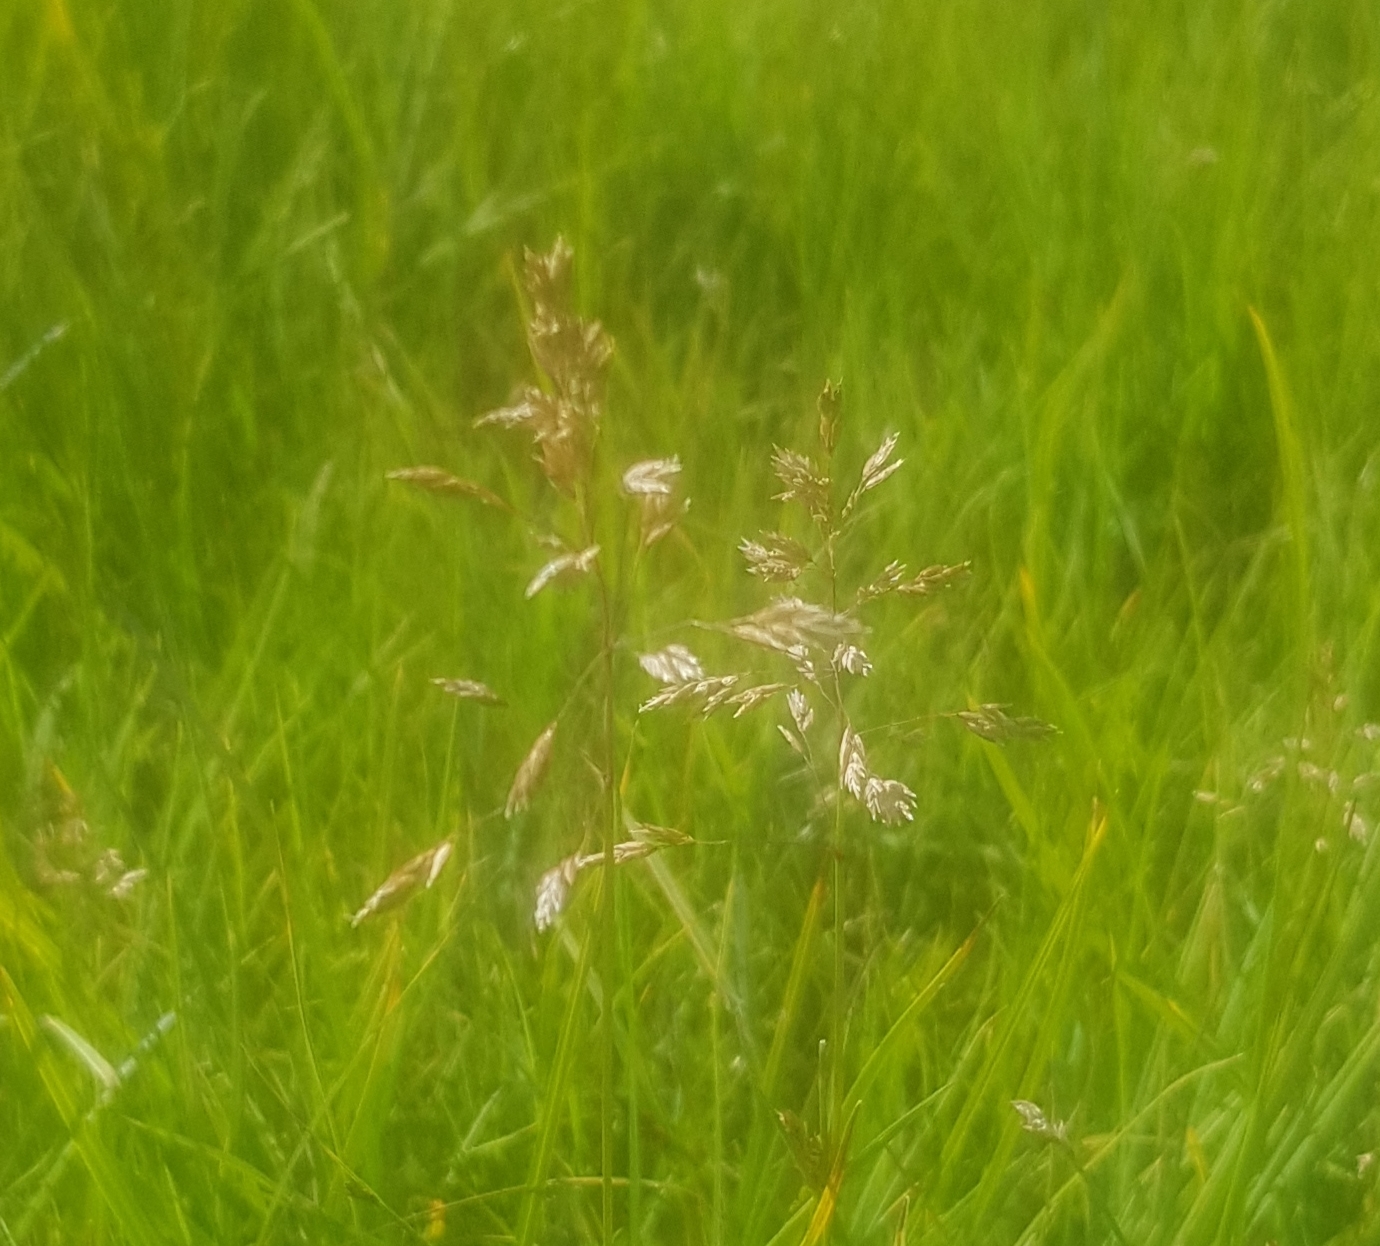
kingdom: Plantae
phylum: Tracheophyta
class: Liliopsida
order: Poales
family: Poaceae
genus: Poa
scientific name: Poa pratensis
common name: Kentucky bluegrass
